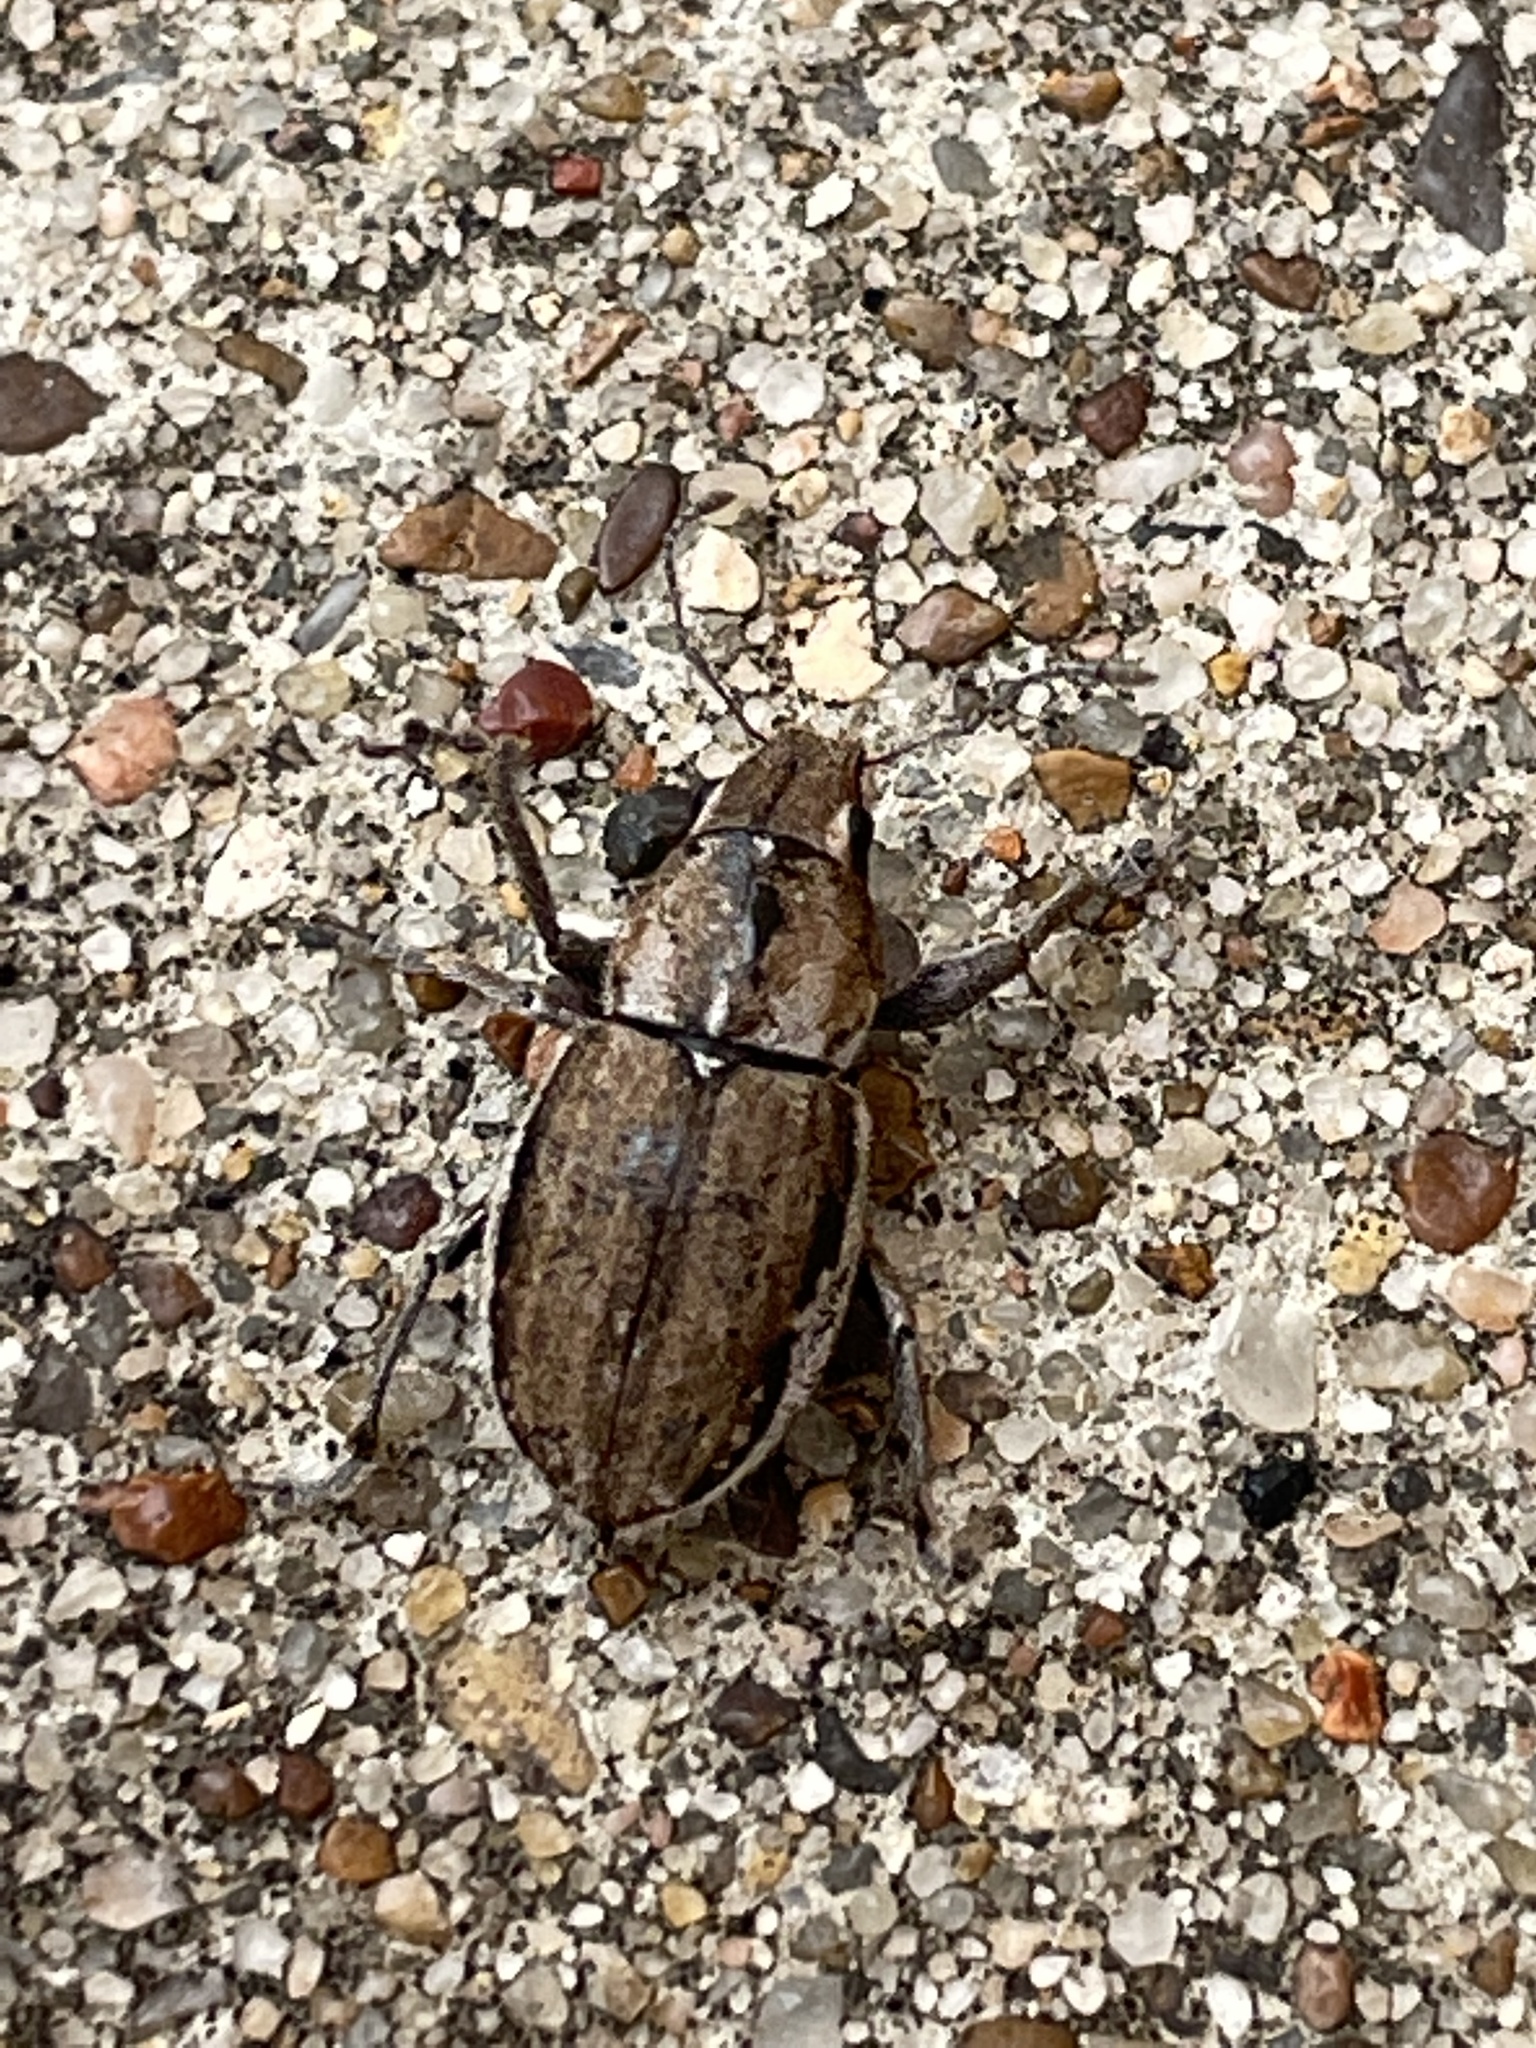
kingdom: Animalia
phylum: Arthropoda
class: Insecta
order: Coleoptera
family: Curculionidae
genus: Naupactus
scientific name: Naupactus peregrinus
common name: Whitefringed beetle
